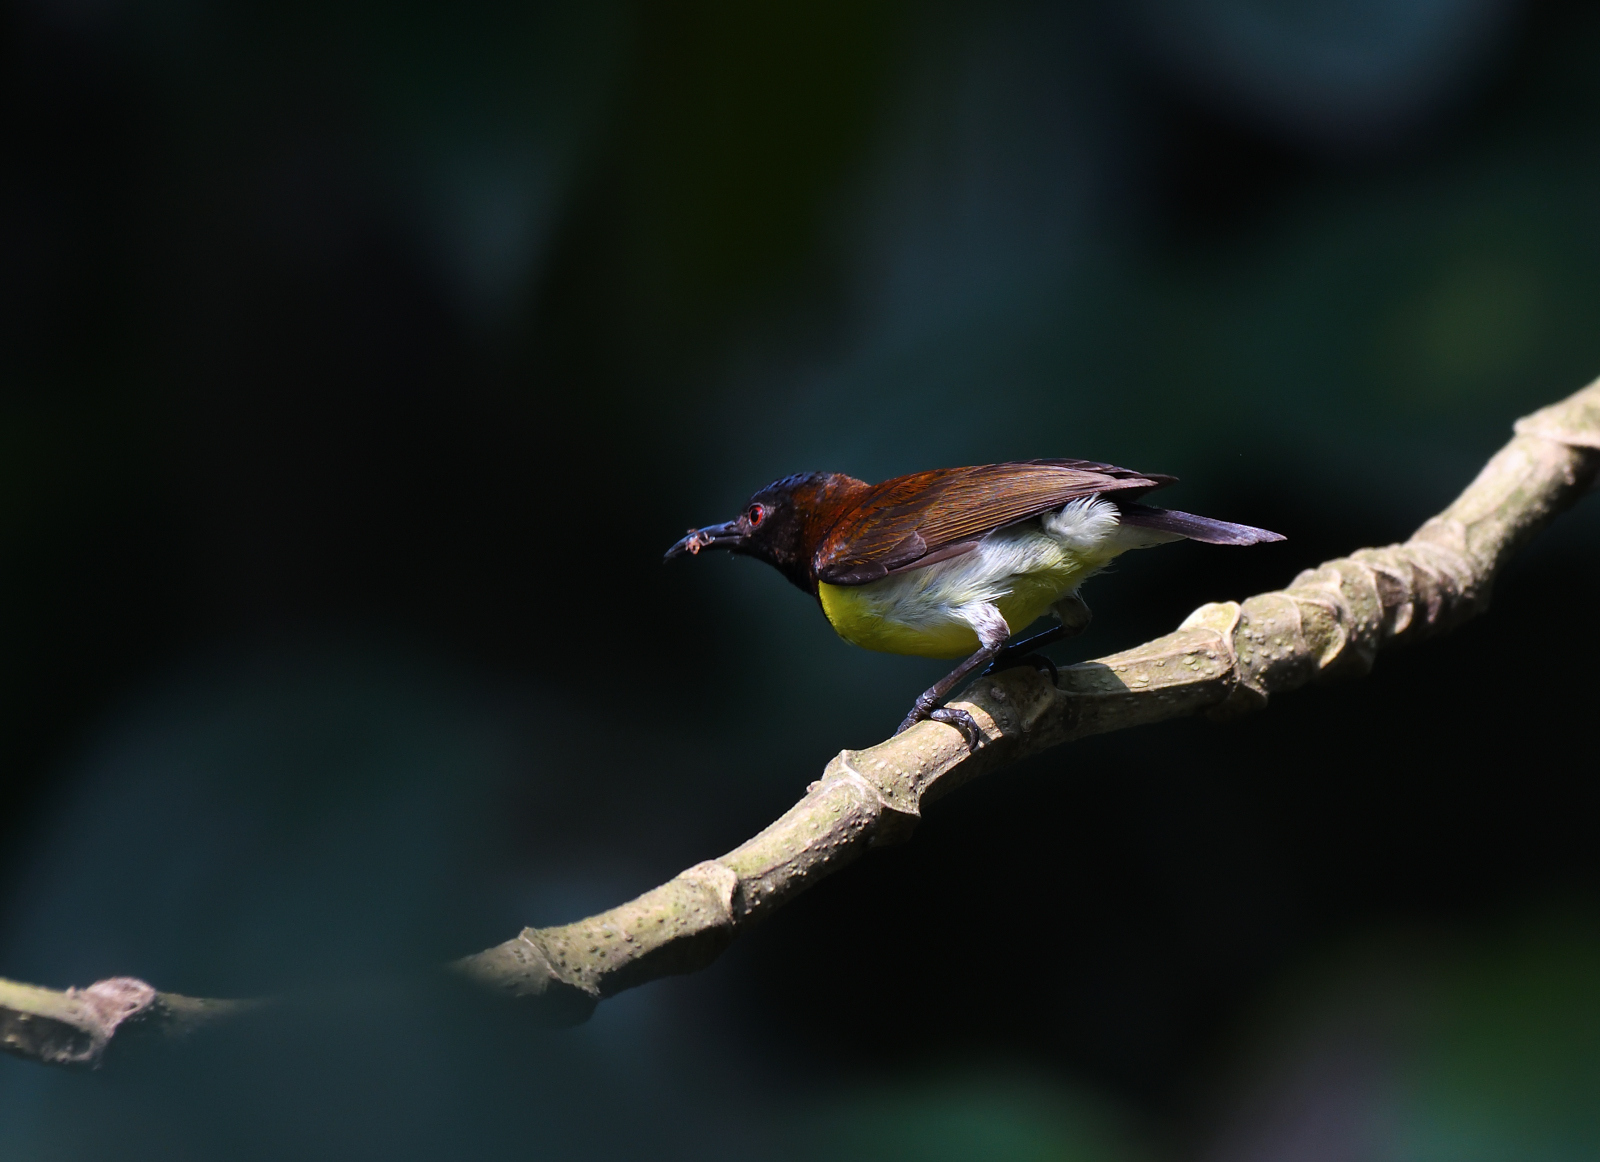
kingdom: Animalia
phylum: Chordata
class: Aves
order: Passeriformes
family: Nectariniidae
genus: Leptocoma
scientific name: Leptocoma zeylonica
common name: Purple-rumped sunbird
